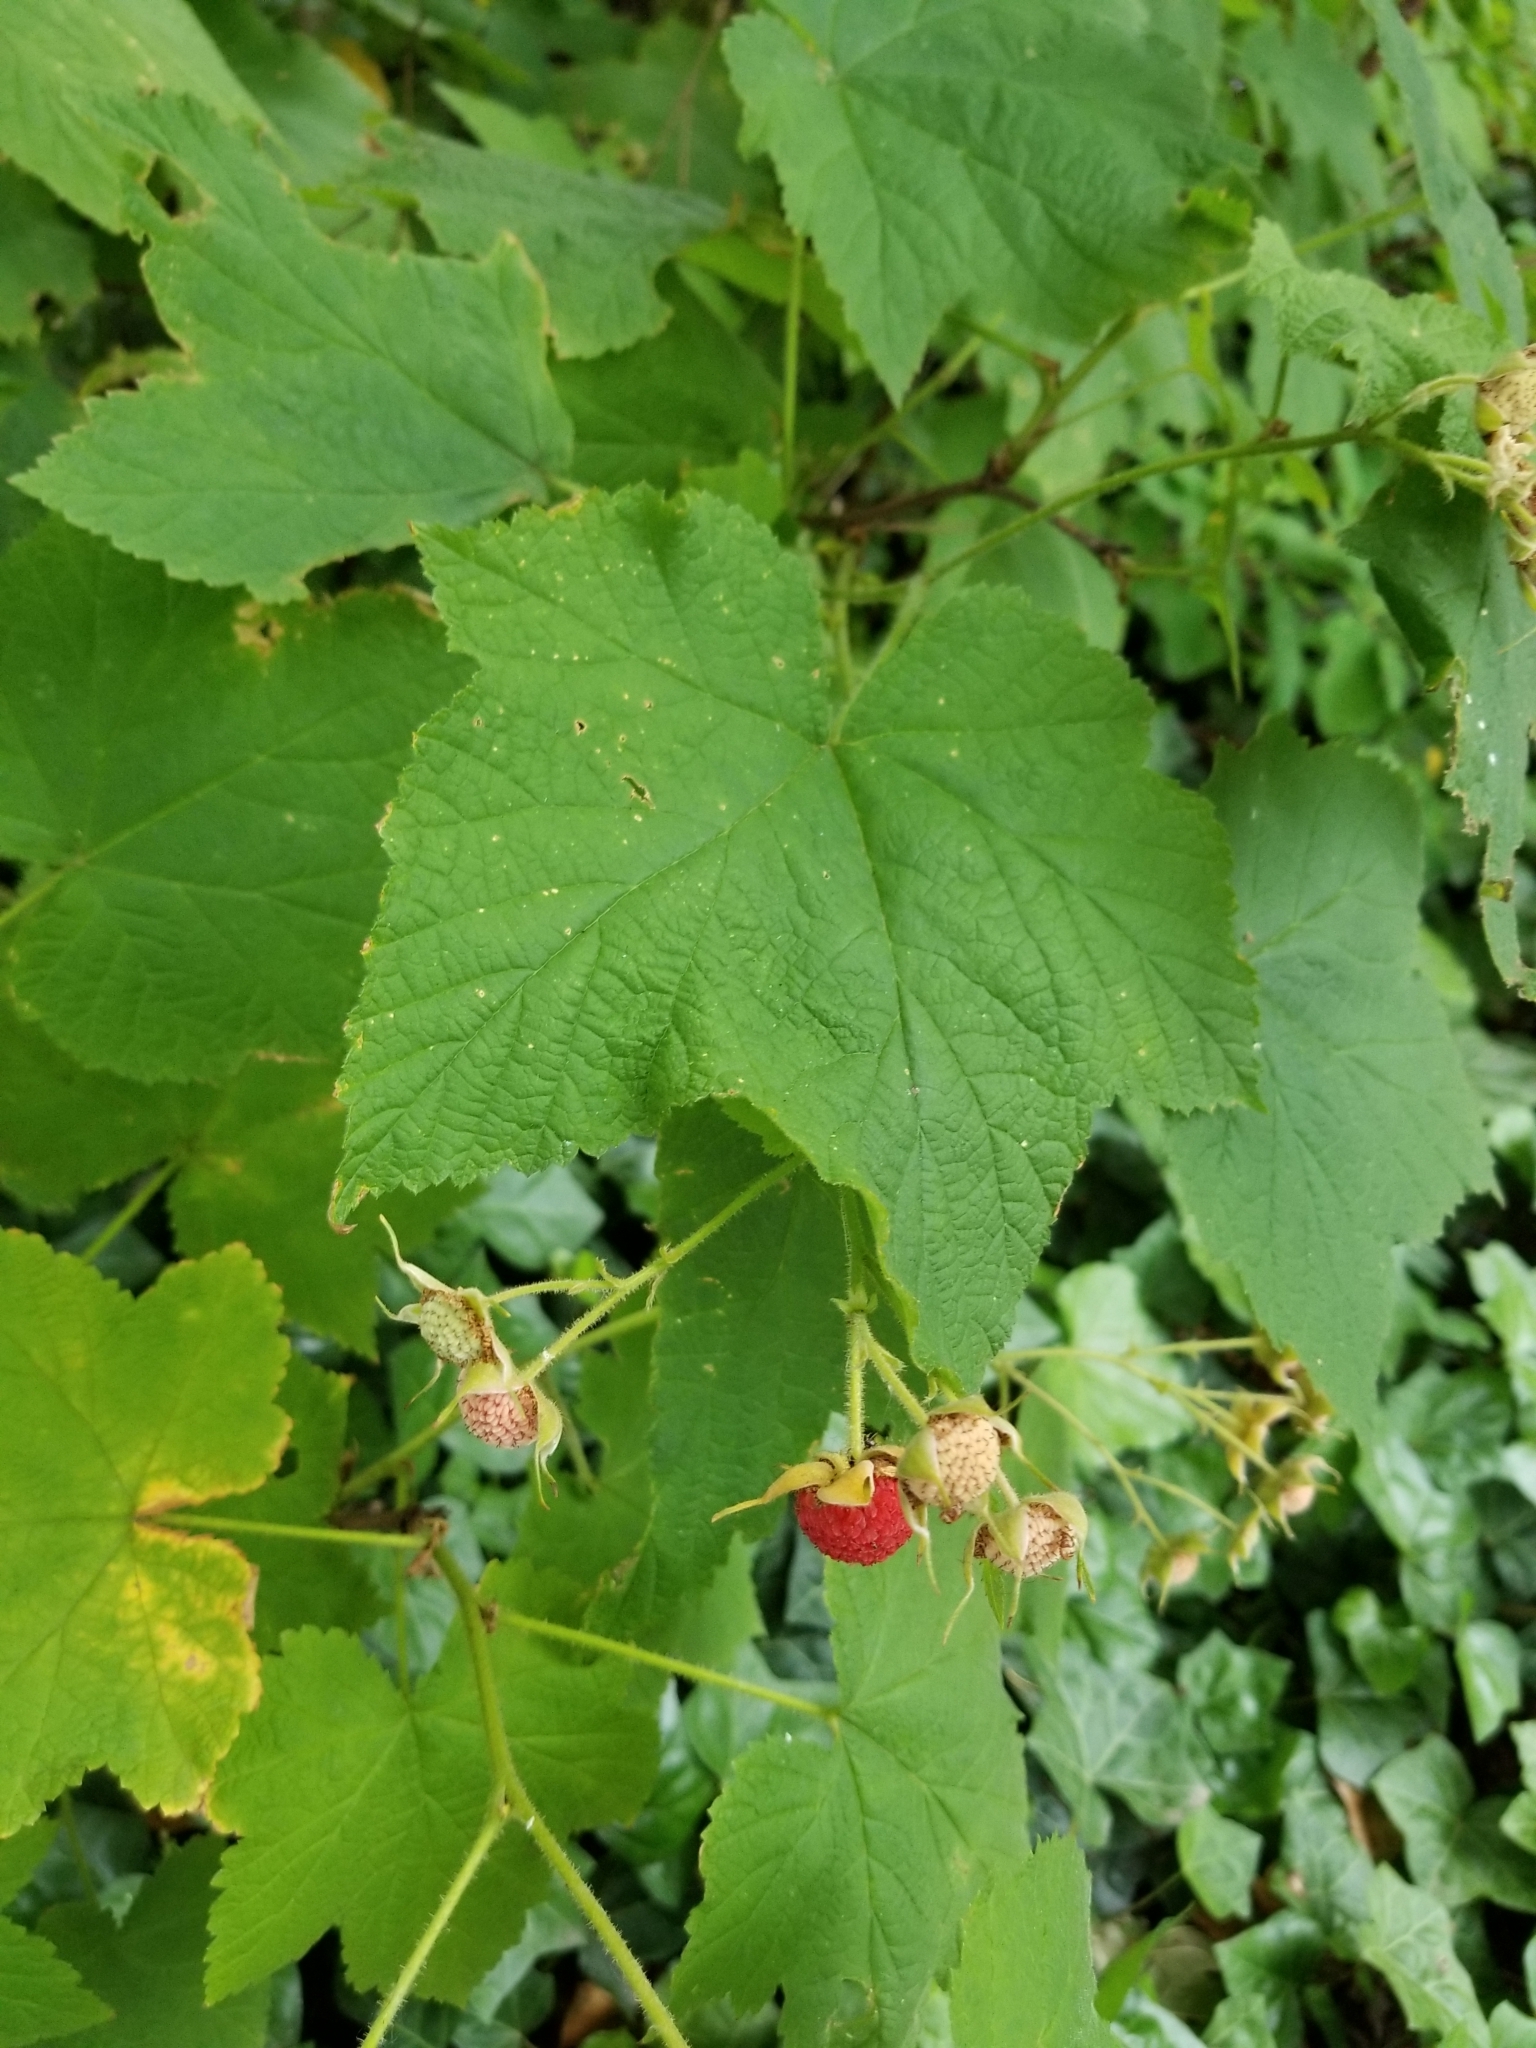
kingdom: Plantae
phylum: Tracheophyta
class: Magnoliopsida
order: Rosales
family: Rosaceae
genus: Rubus
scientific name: Rubus parviflorus
